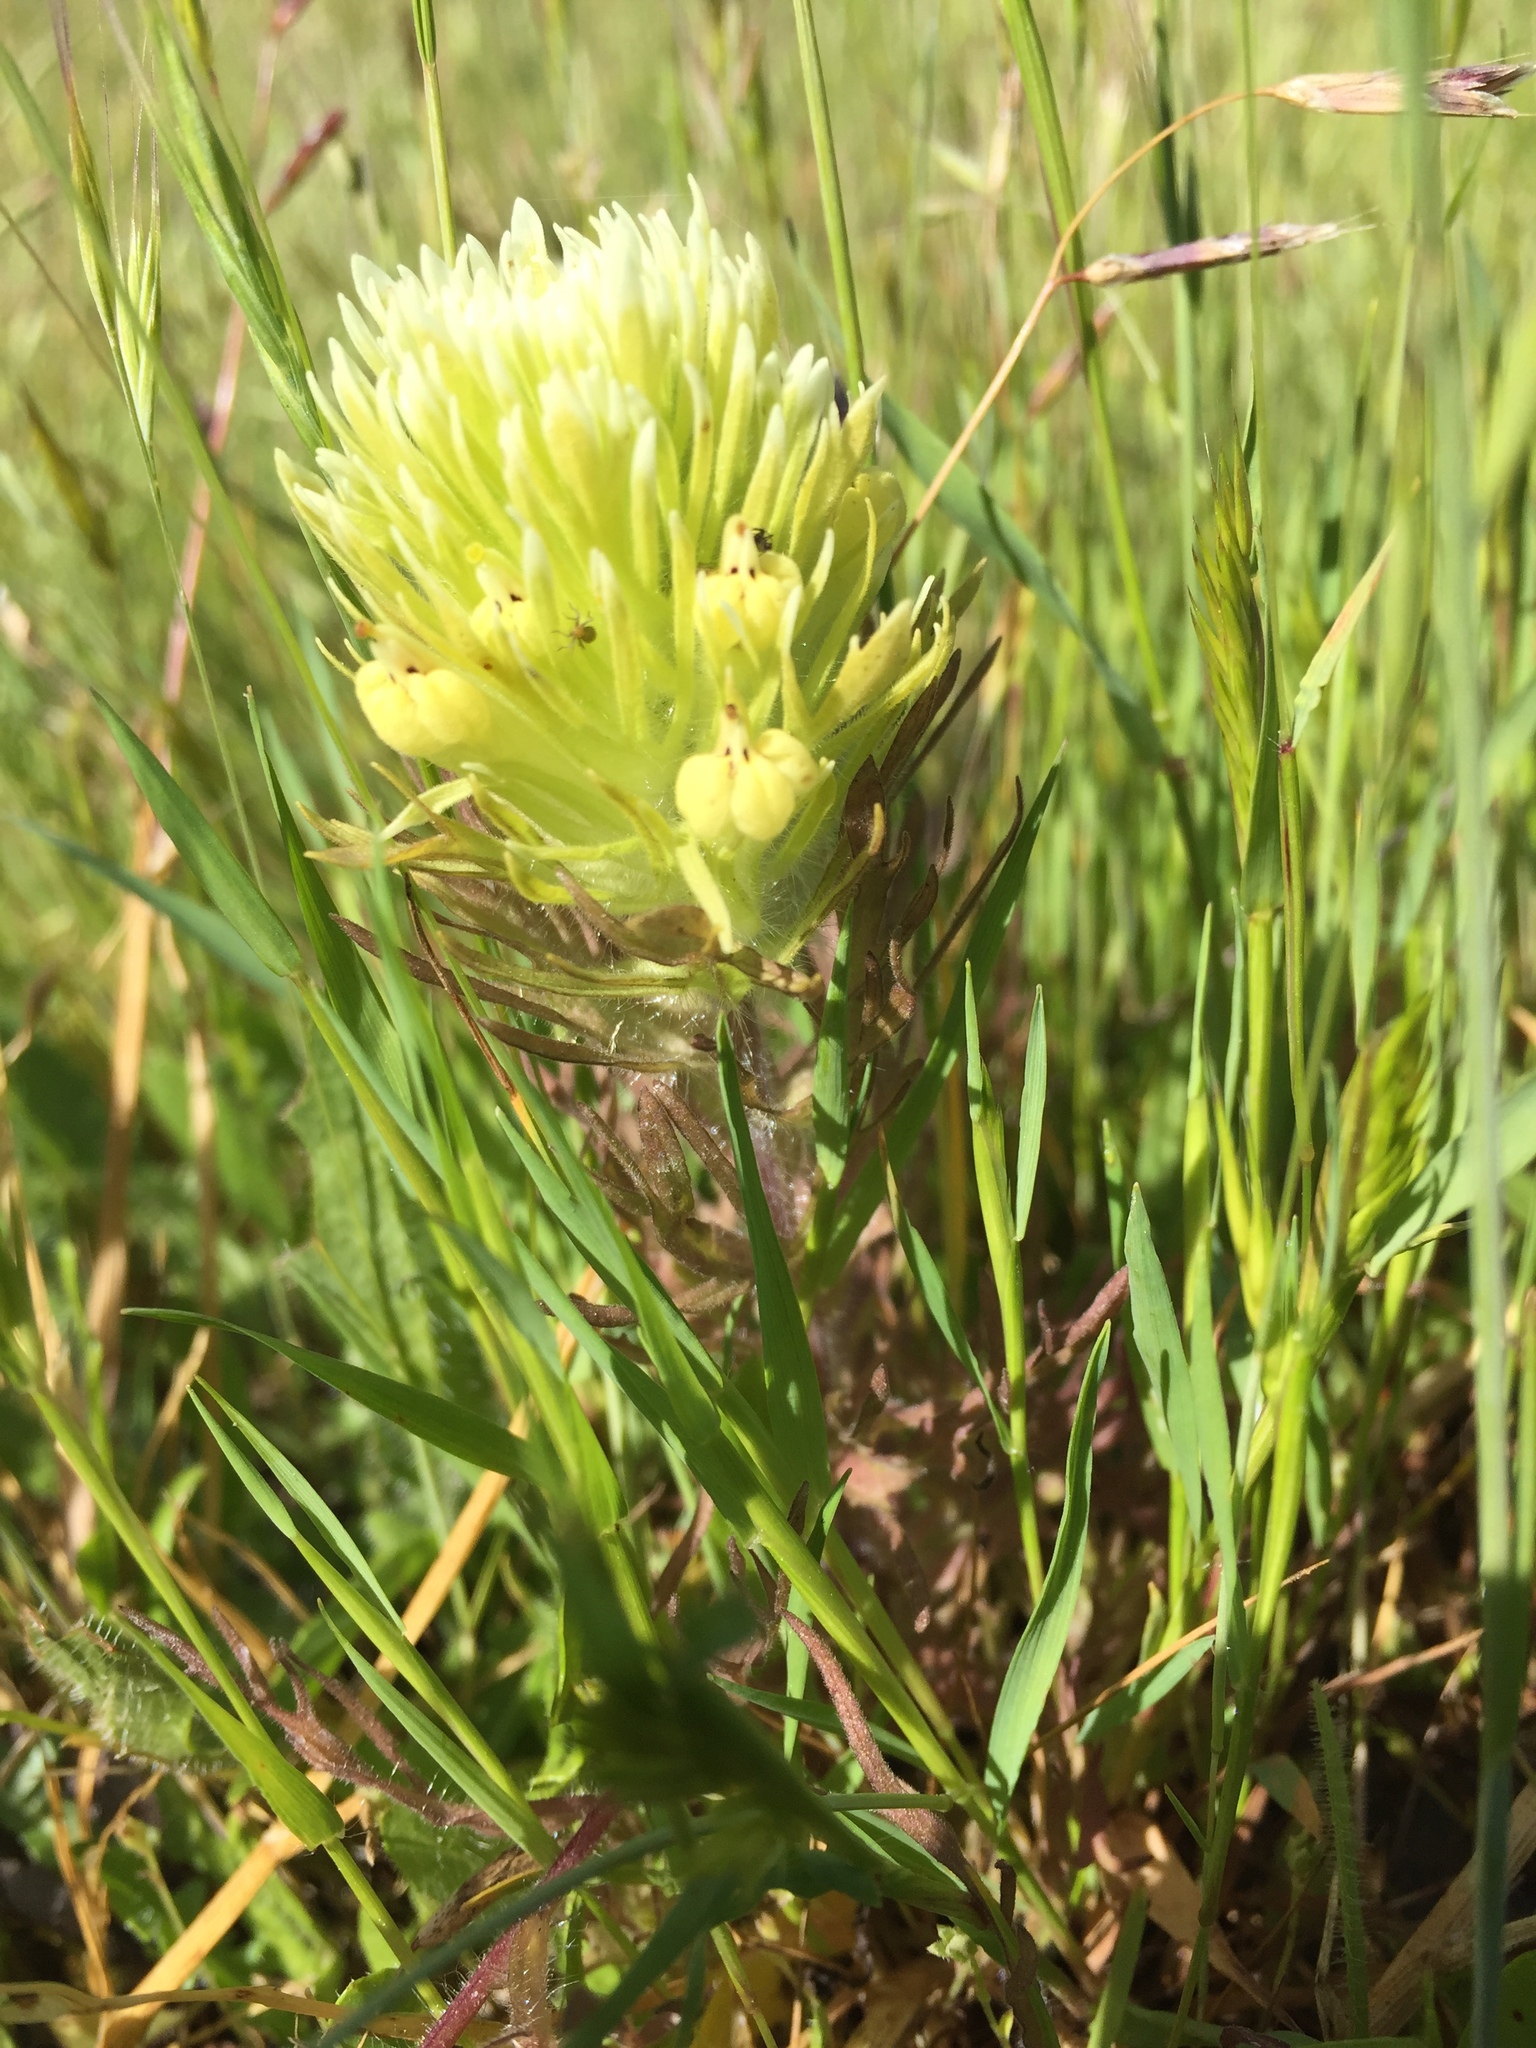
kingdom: Plantae
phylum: Tracheophyta
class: Magnoliopsida
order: Lamiales
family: Orobanchaceae
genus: Castilleja
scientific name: Castilleja densiflora
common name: Dense-flower indian paintbrush
